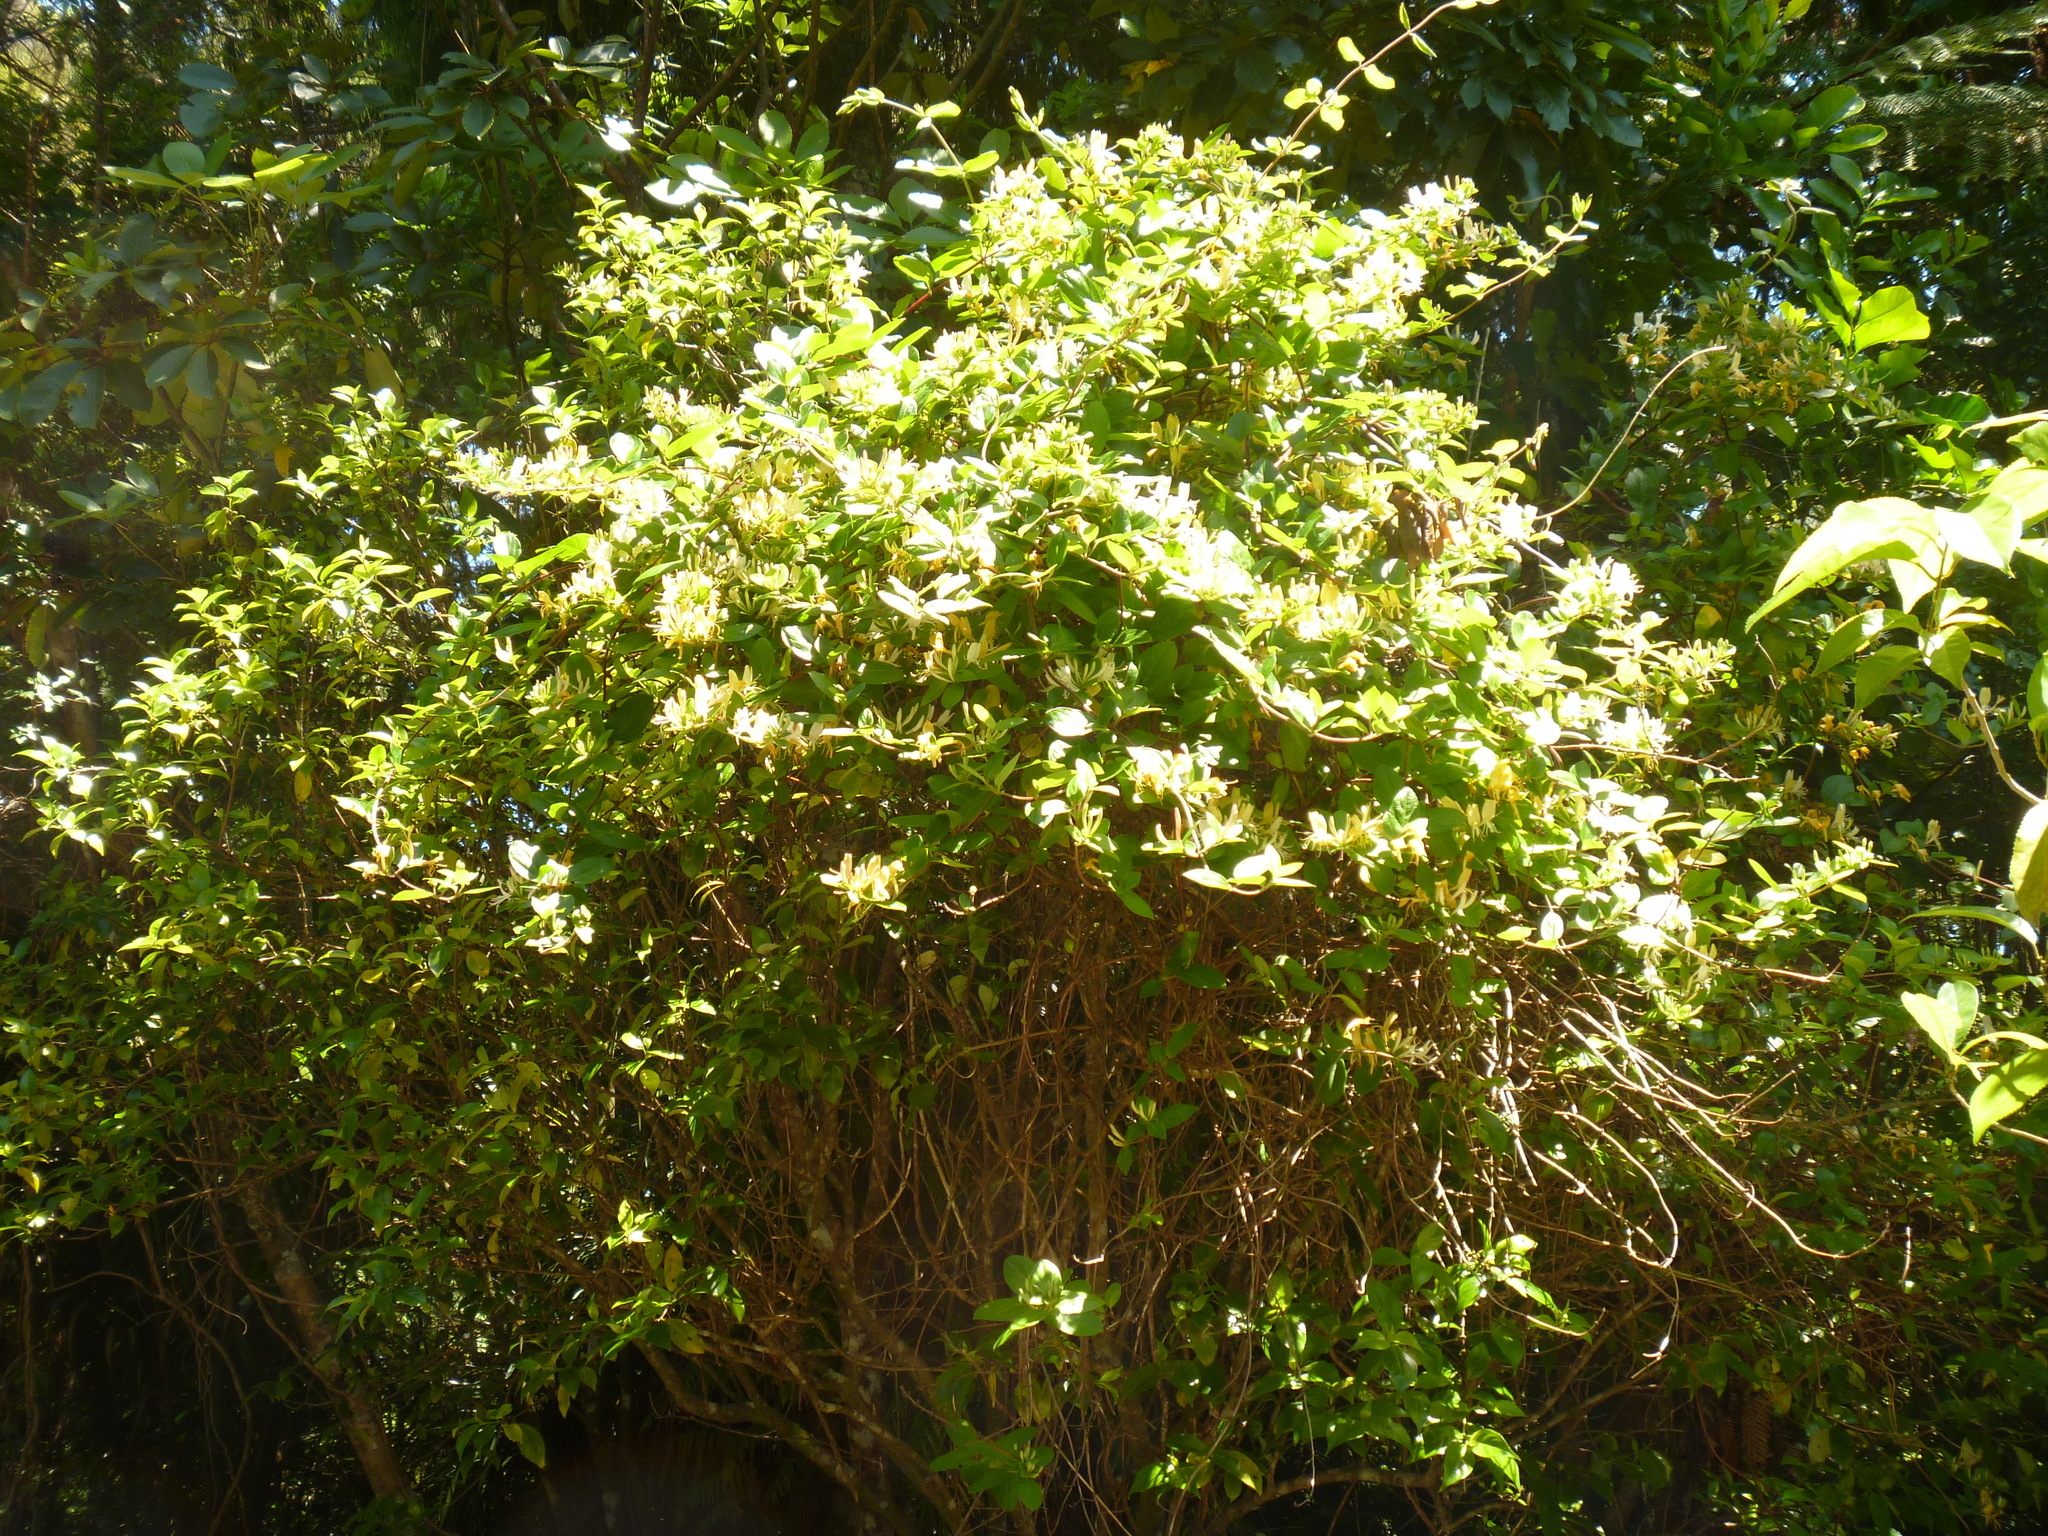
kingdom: Plantae
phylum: Tracheophyta
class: Magnoliopsida
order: Dipsacales
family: Caprifoliaceae
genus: Lonicera
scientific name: Lonicera japonica
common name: Japanese honeysuckle
